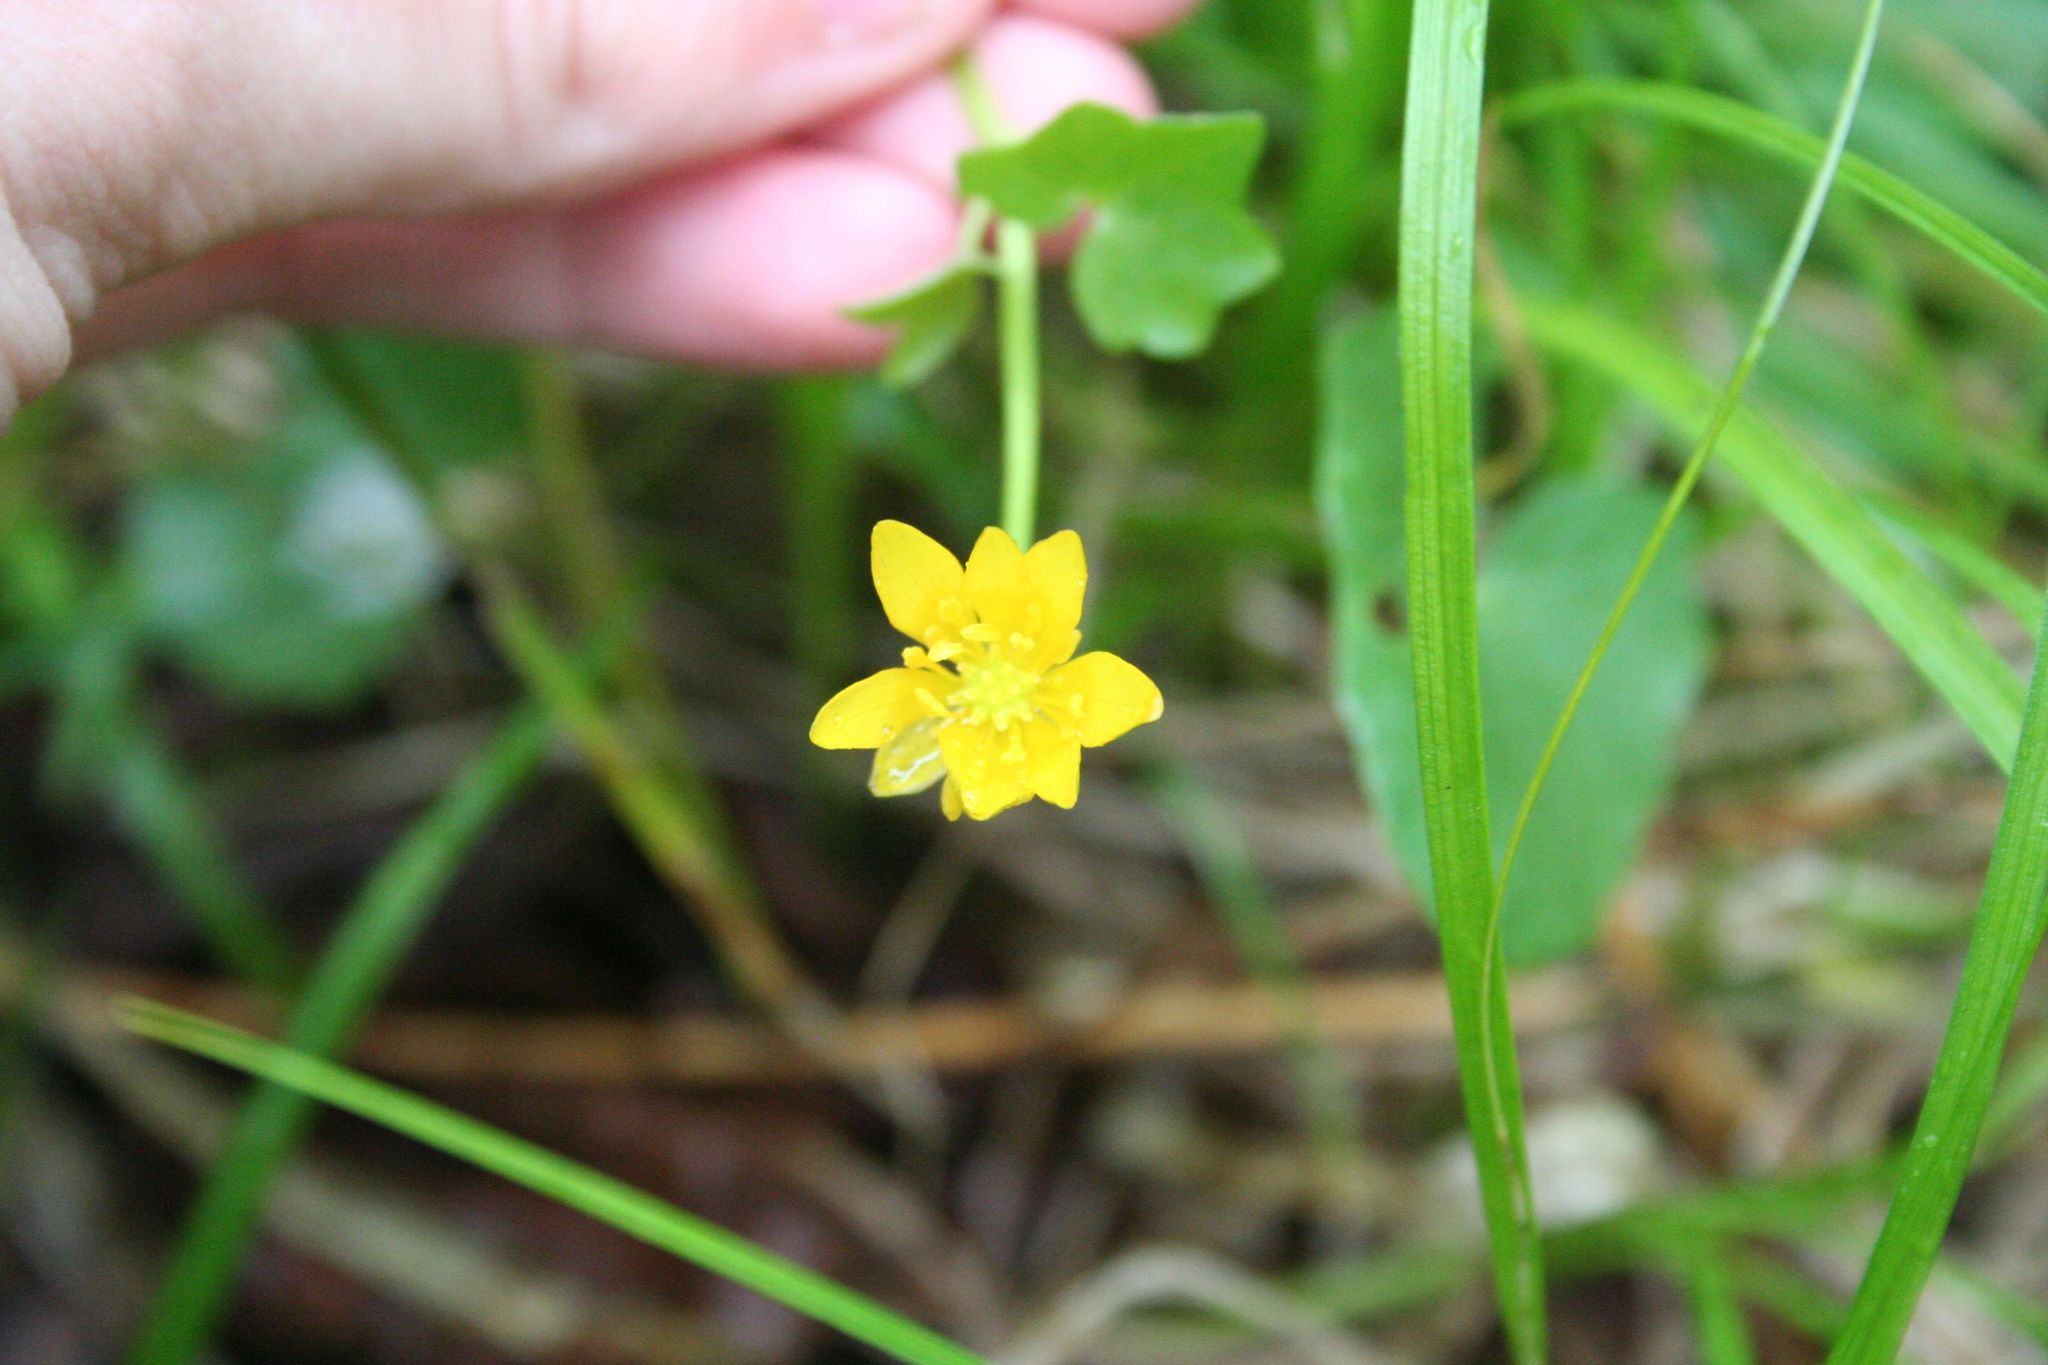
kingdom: Plantae
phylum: Tracheophyta
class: Magnoliopsida
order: Ranunculales
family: Ranunculaceae
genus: Ficaria
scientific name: Ficaria verna
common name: Lesser celandine
